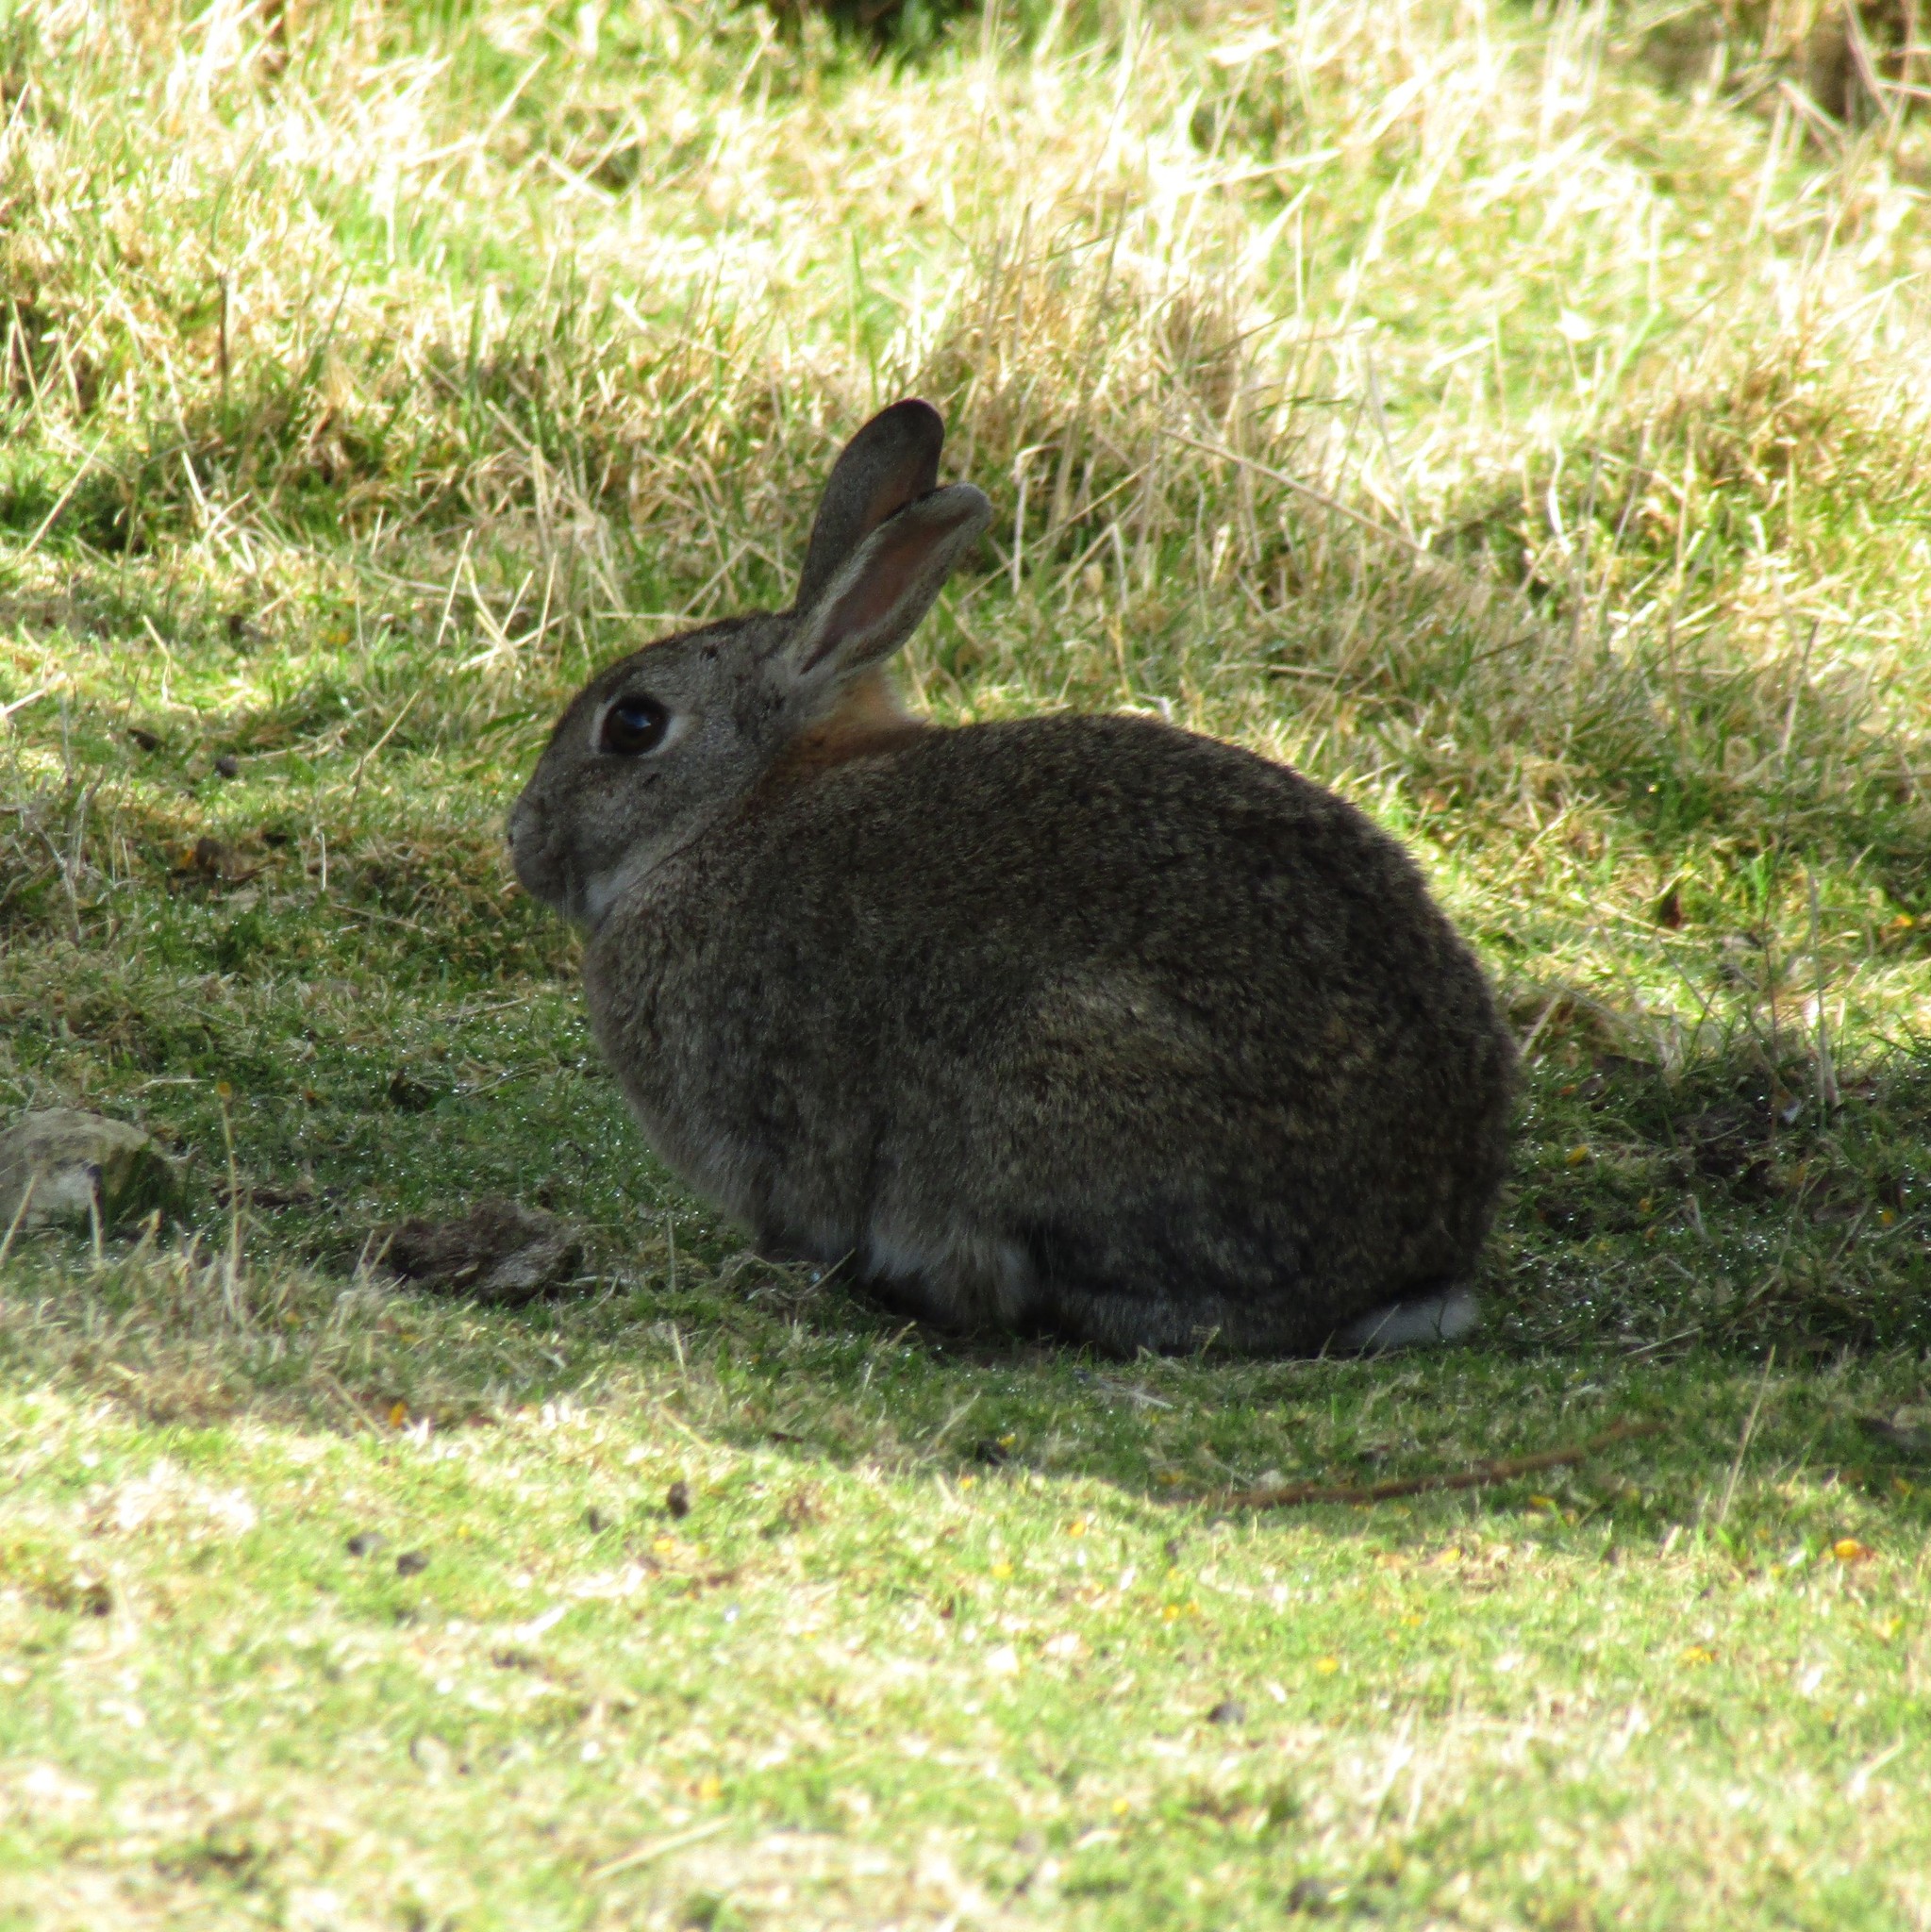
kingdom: Animalia
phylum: Chordata
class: Mammalia
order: Lagomorpha
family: Leporidae
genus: Oryctolagus
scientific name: Oryctolagus cuniculus
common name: European rabbit
